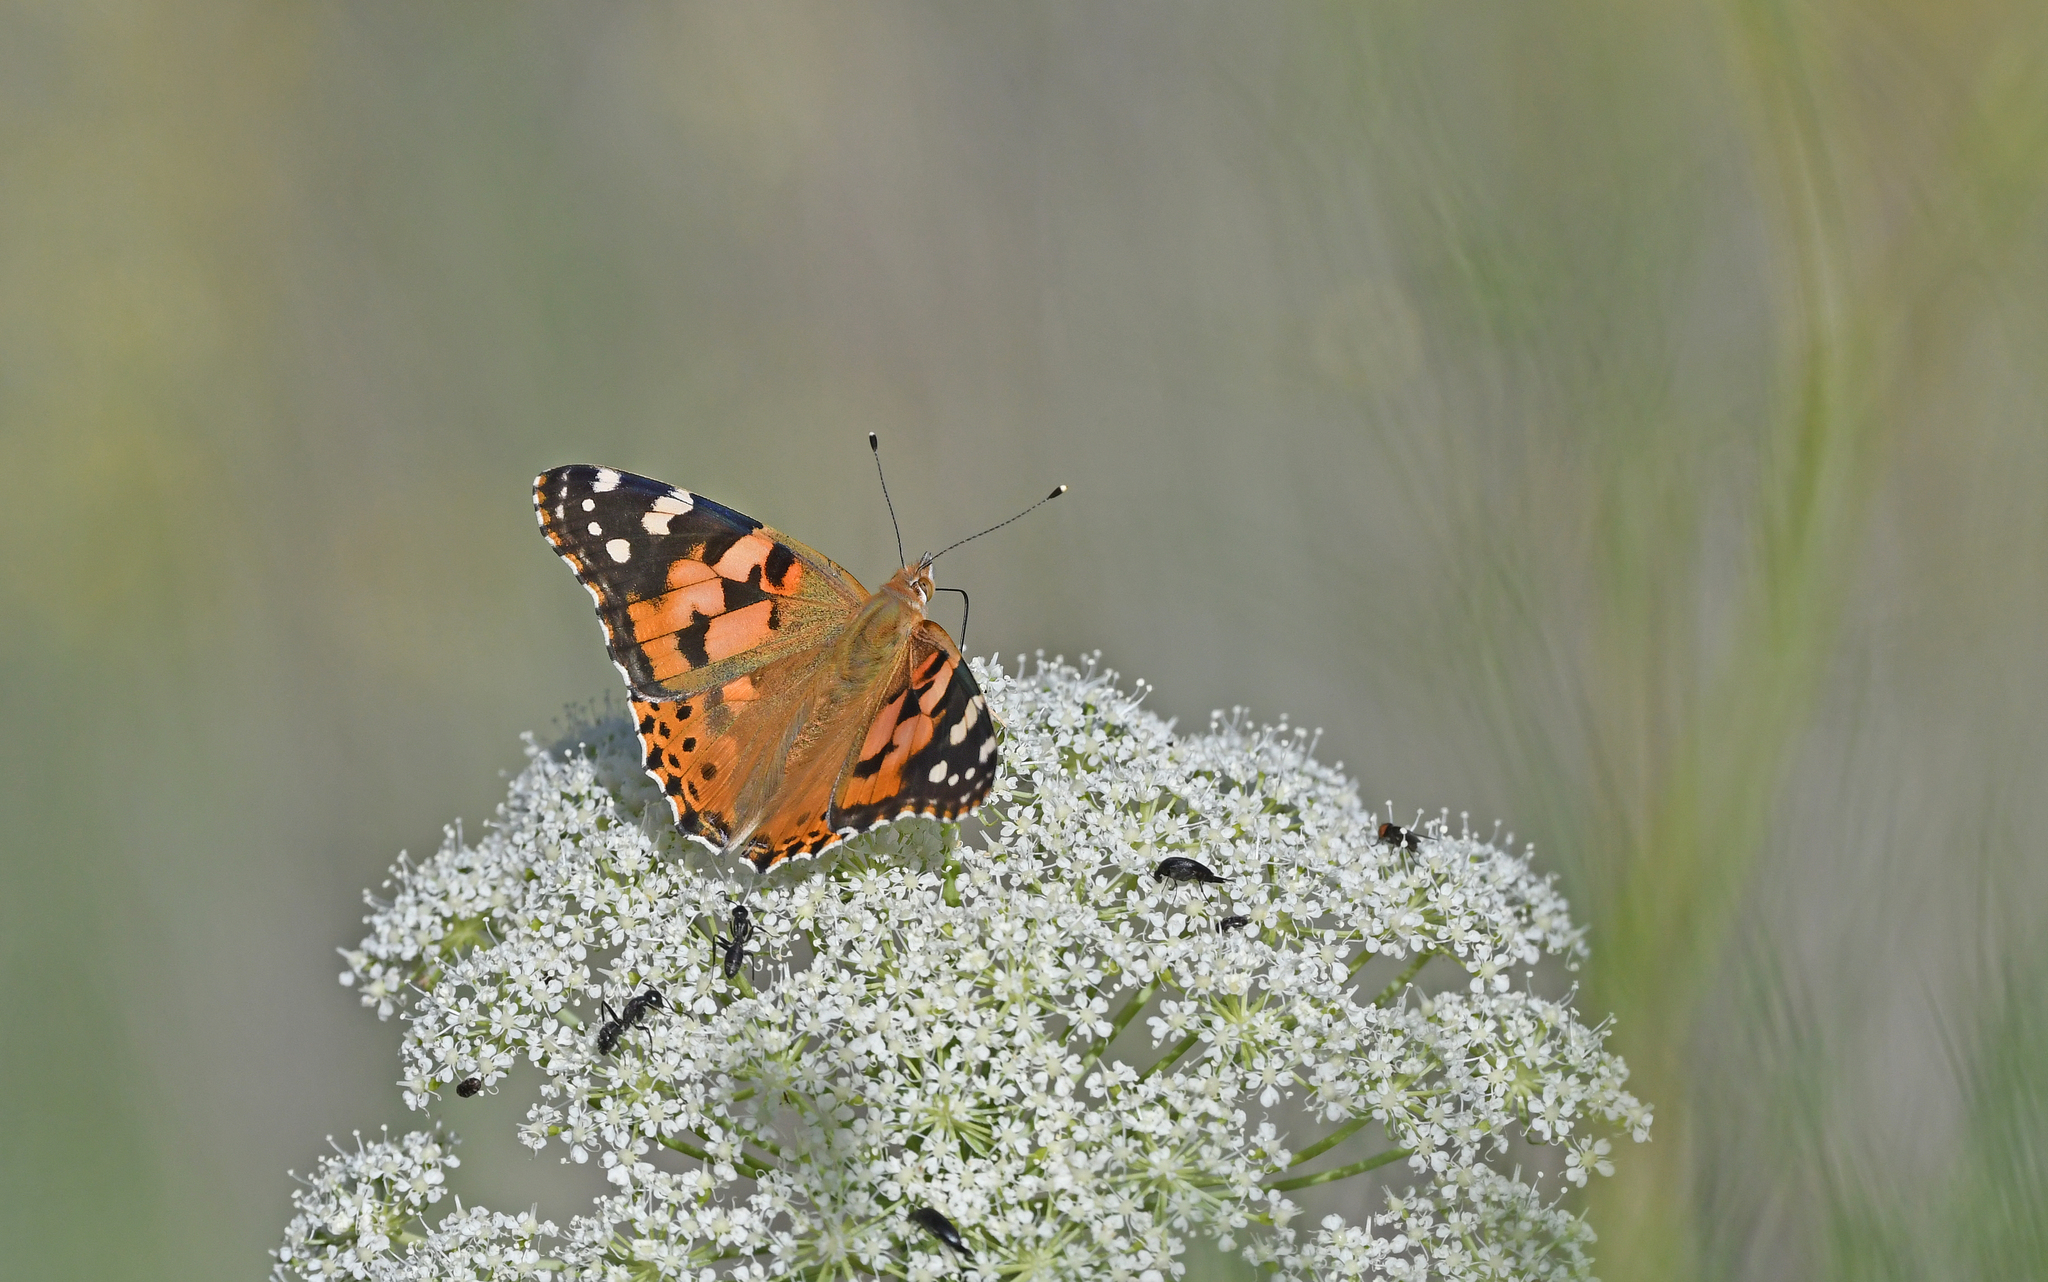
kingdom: Animalia
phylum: Arthropoda
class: Insecta
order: Lepidoptera
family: Nymphalidae
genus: Vanessa
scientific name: Vanessa cardui
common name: Painted lady
